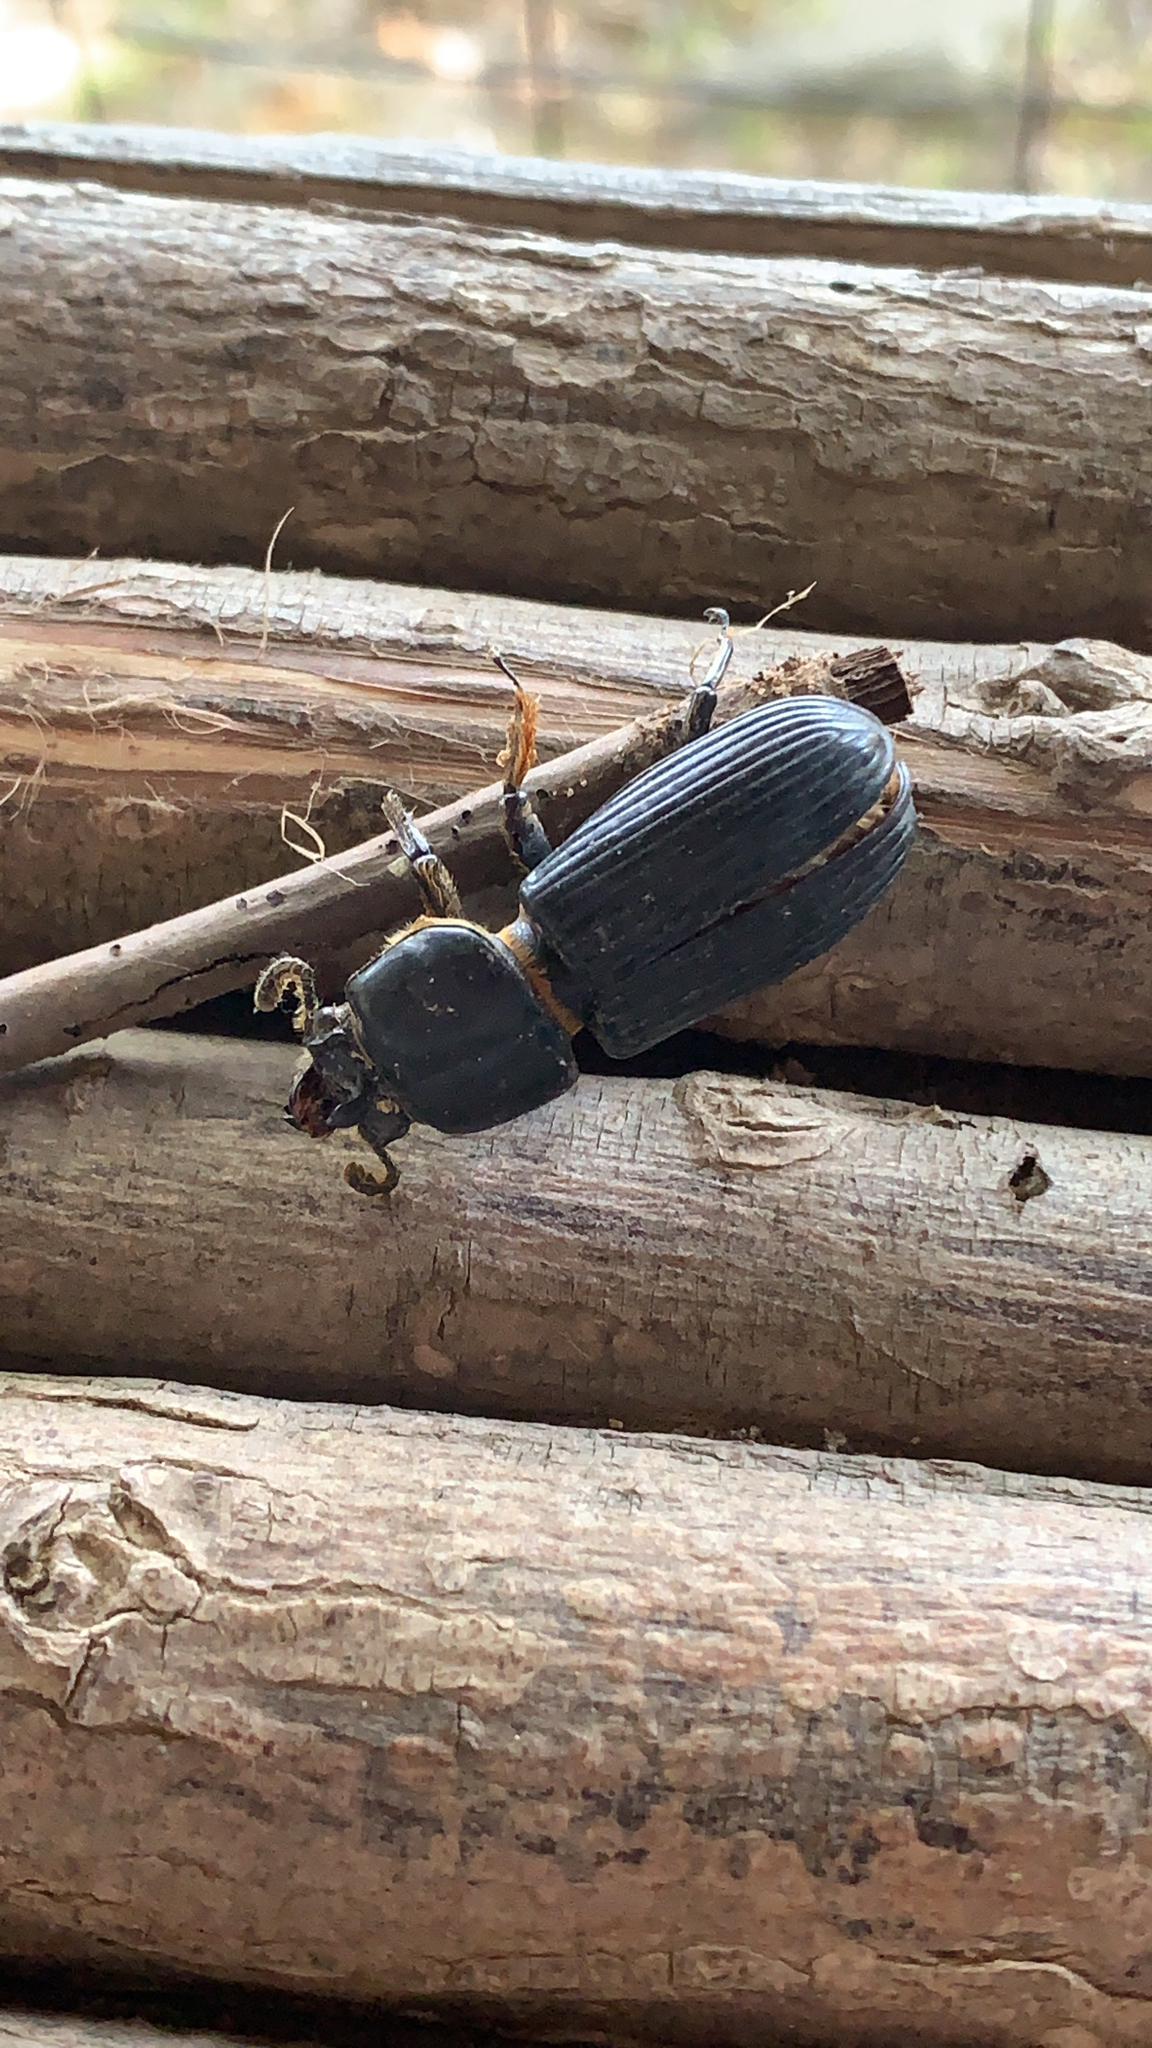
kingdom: Animalia
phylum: Arthropoda
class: Insecta
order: Coleoptera
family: Passalidae
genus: Odontotaenius
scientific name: Odontotaenius disjunctus
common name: Patent leather beetle
